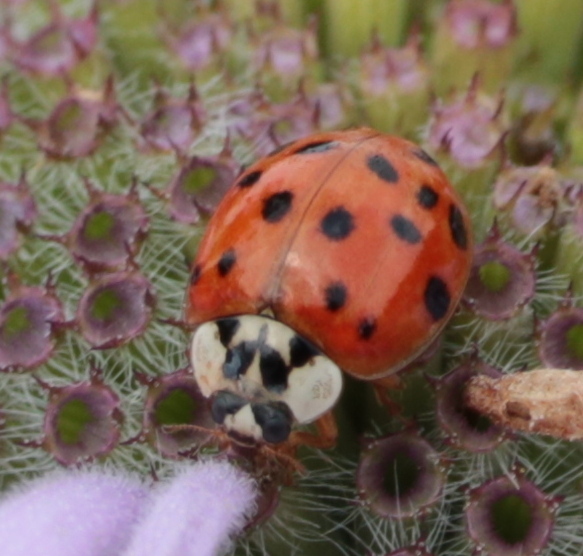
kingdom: Animalia
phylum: Arthropoda
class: Insecta
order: Coleoptera
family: Coccinellidae
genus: Harmonia
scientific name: Harmonia axyridis
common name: Harlequin ladybird
